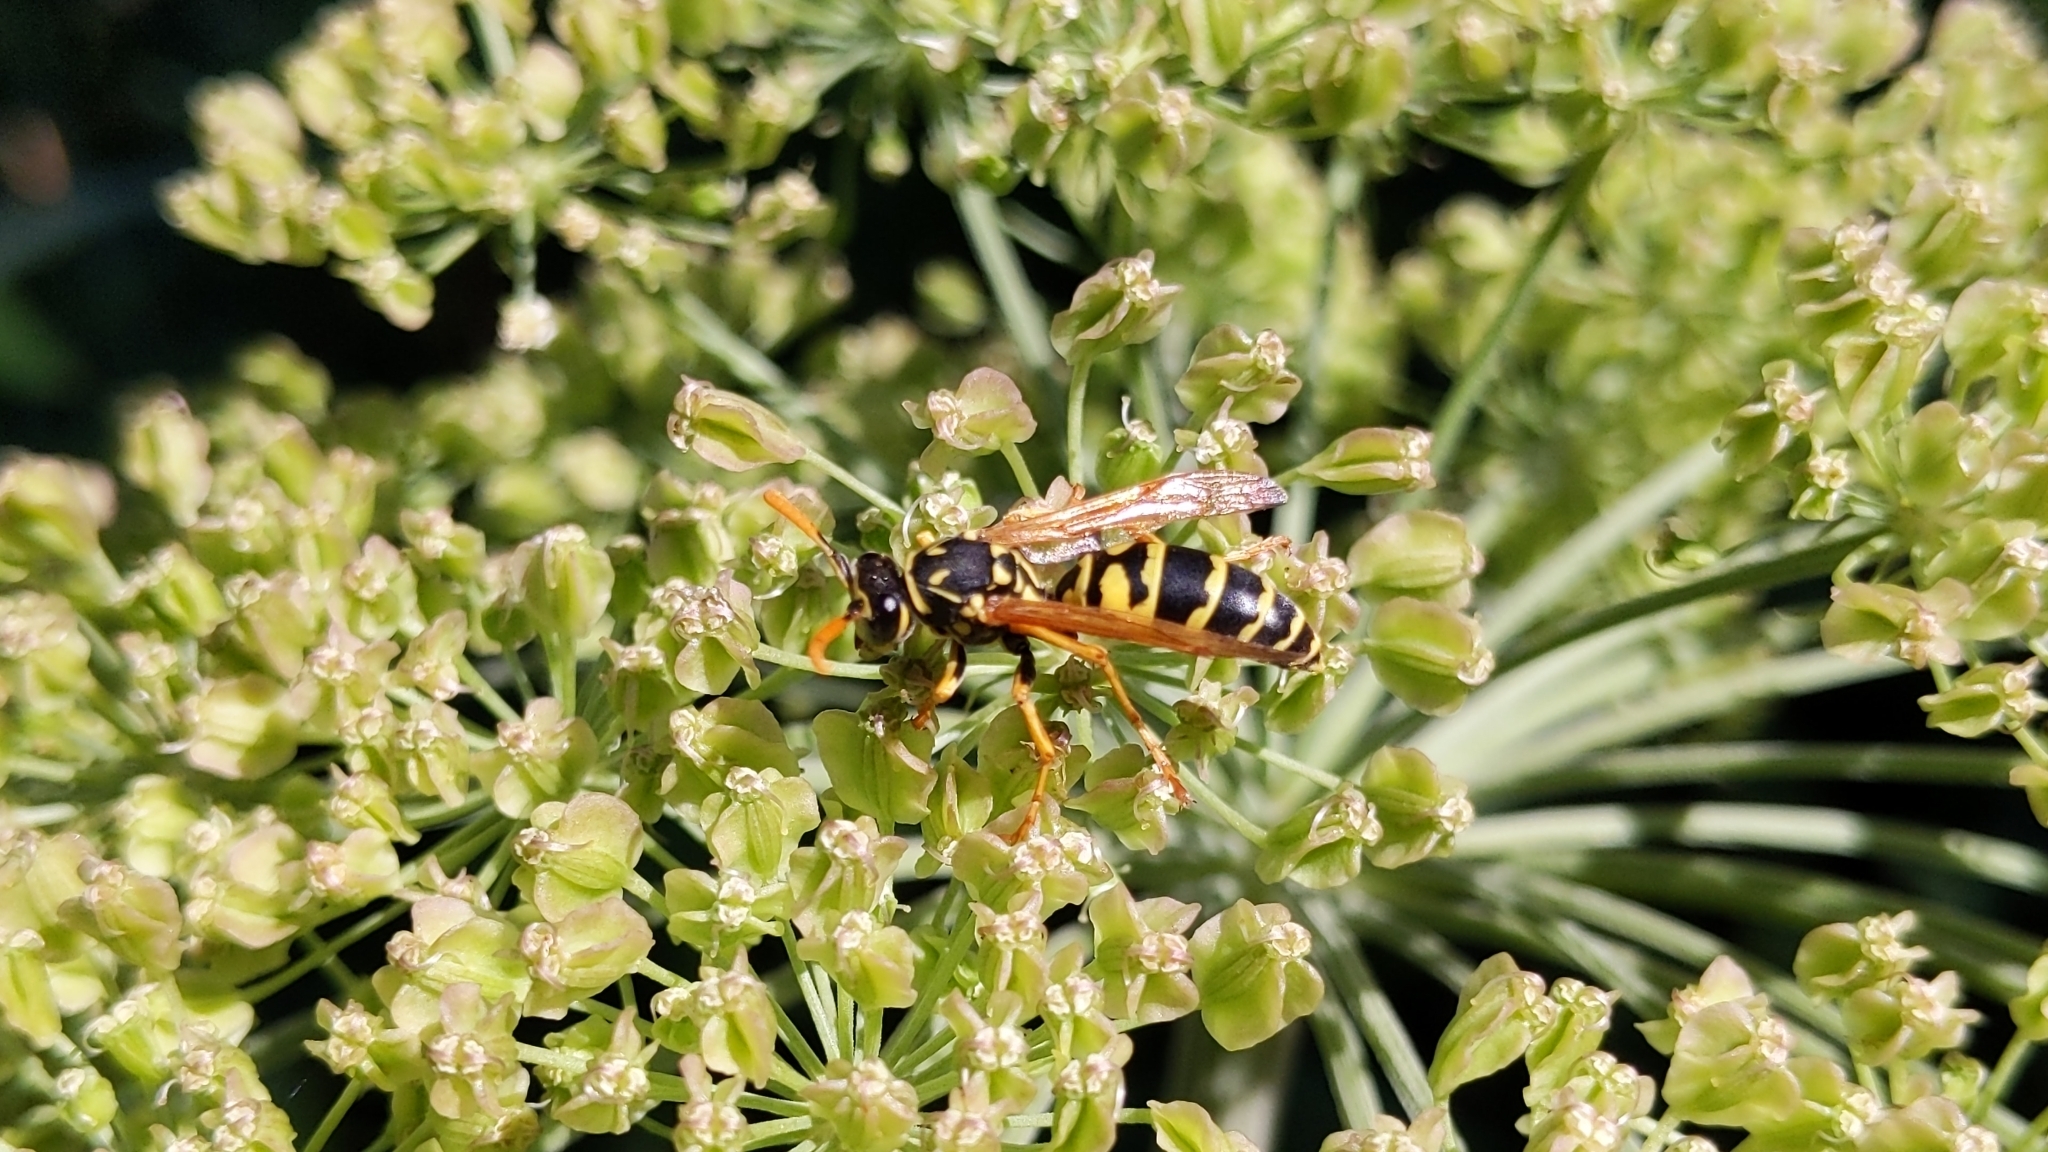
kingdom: Animalia
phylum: Arthropoda
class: Insecta
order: Hymenoptera
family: Eumenidae
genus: Polistes
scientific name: Polistes dominula
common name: Paper wasp
